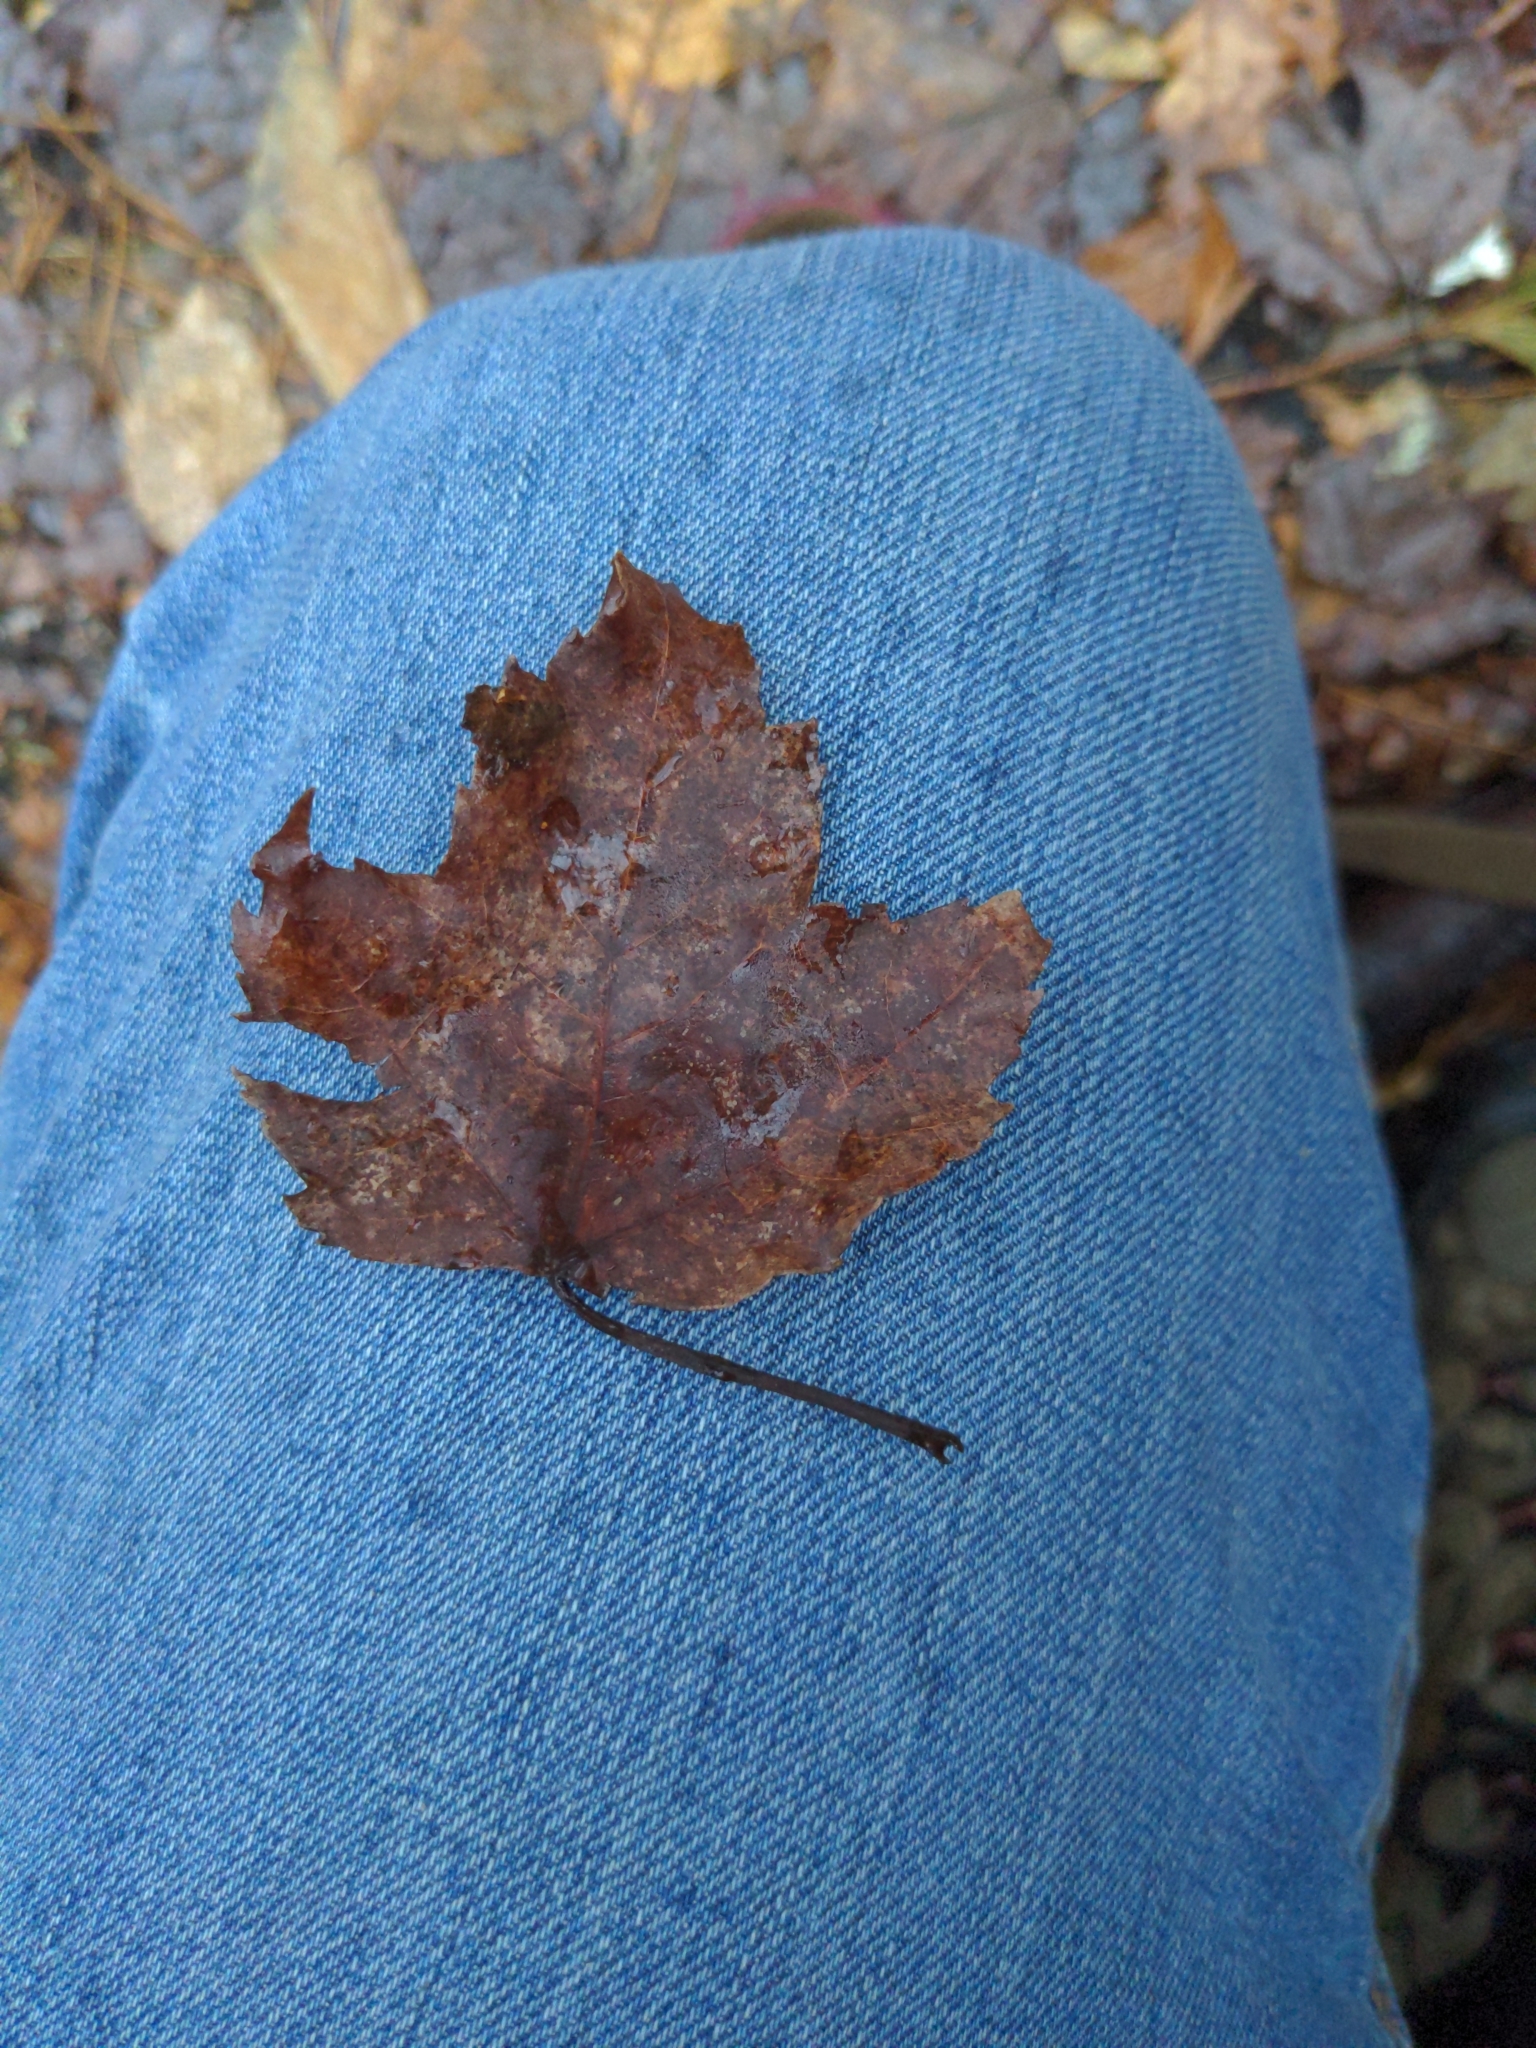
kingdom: Plantae
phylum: Tracheophyta
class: Magnoliopsida
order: Sapindales
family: Sapindaceae
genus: Acer
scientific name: Acer rubrum
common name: Red maple
